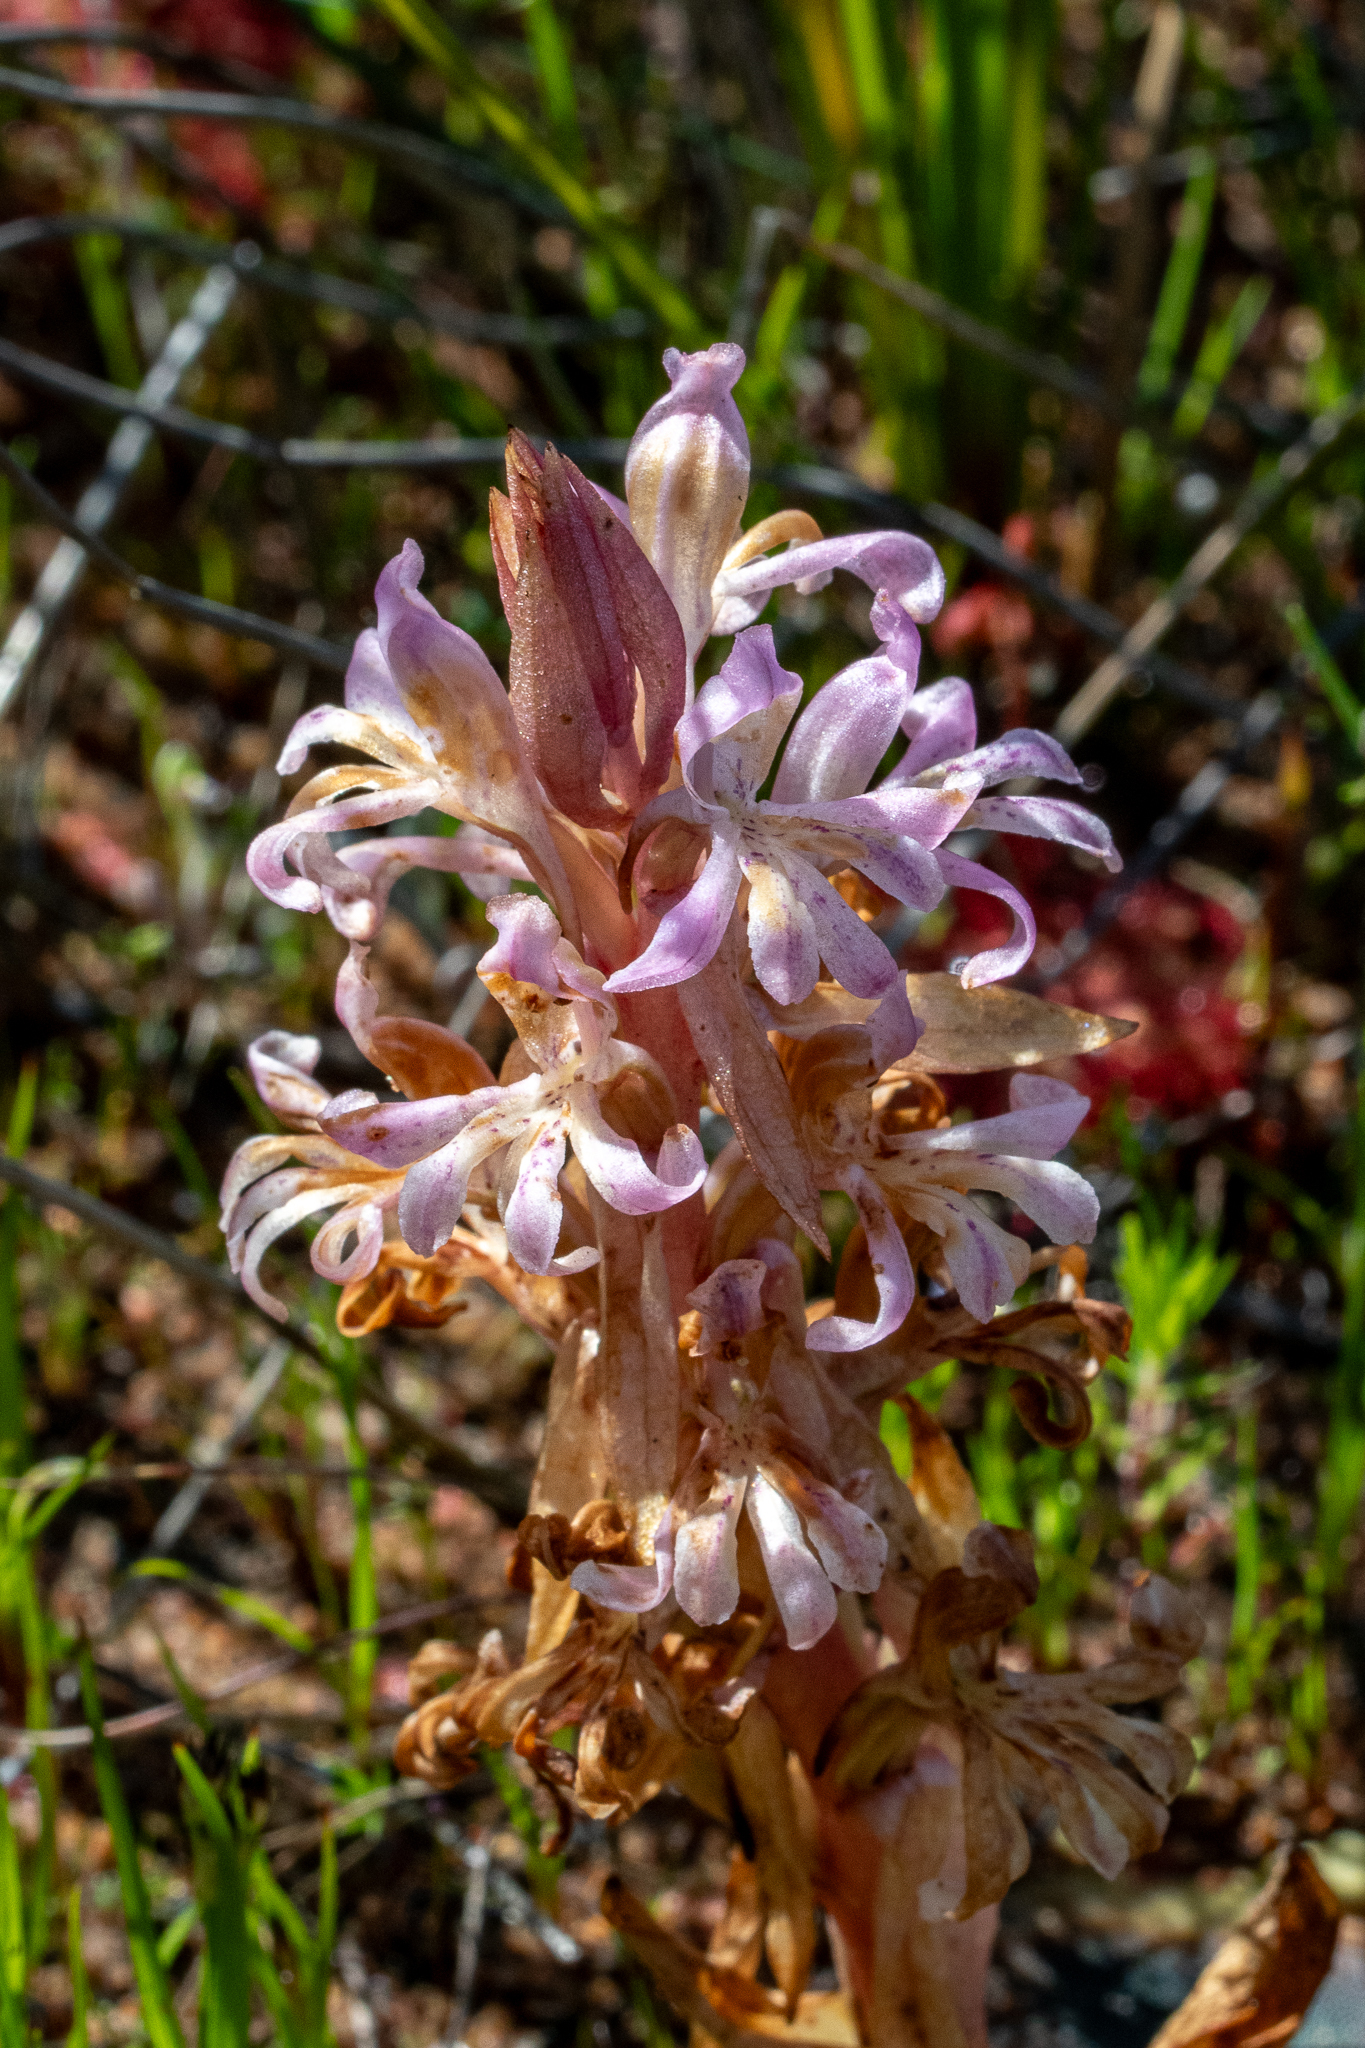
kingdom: Plantae
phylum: Tracheophyta
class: Liliopsida
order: Asparagales
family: Orchidaceae
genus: Satyrium
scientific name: Satyrium erectum
